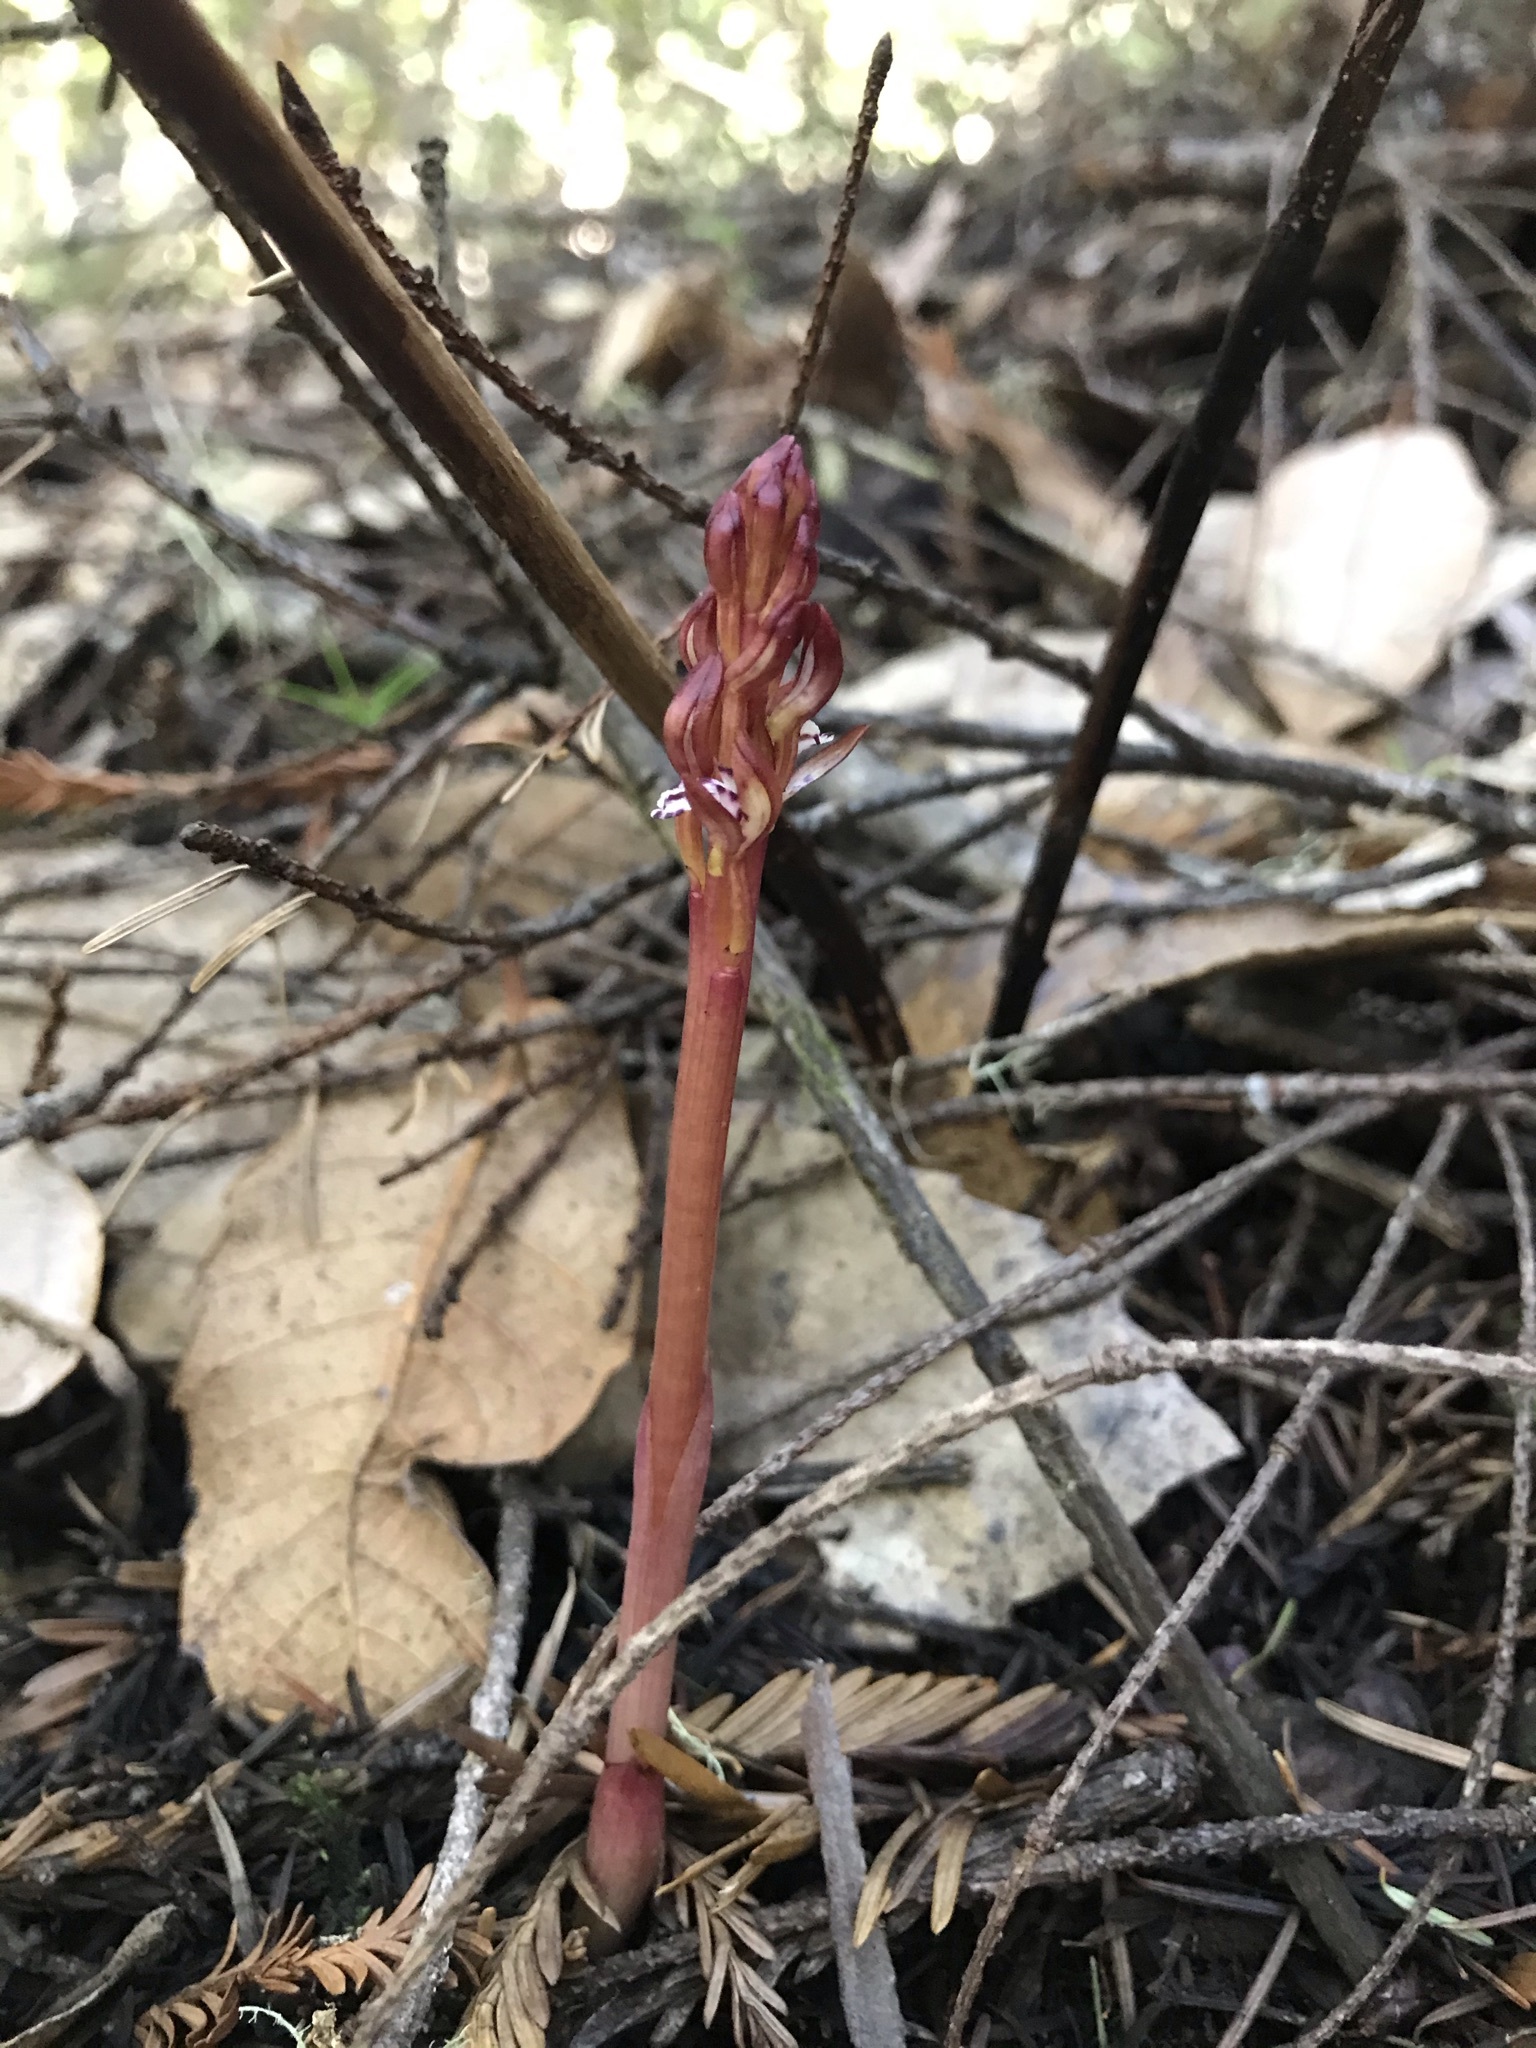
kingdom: Plantae
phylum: Tracheophyta
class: Liliopsida
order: Asparagales
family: Orchidaceae
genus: Corallorhiza
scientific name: Corallorhiza maculata
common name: Spotted coralroot
